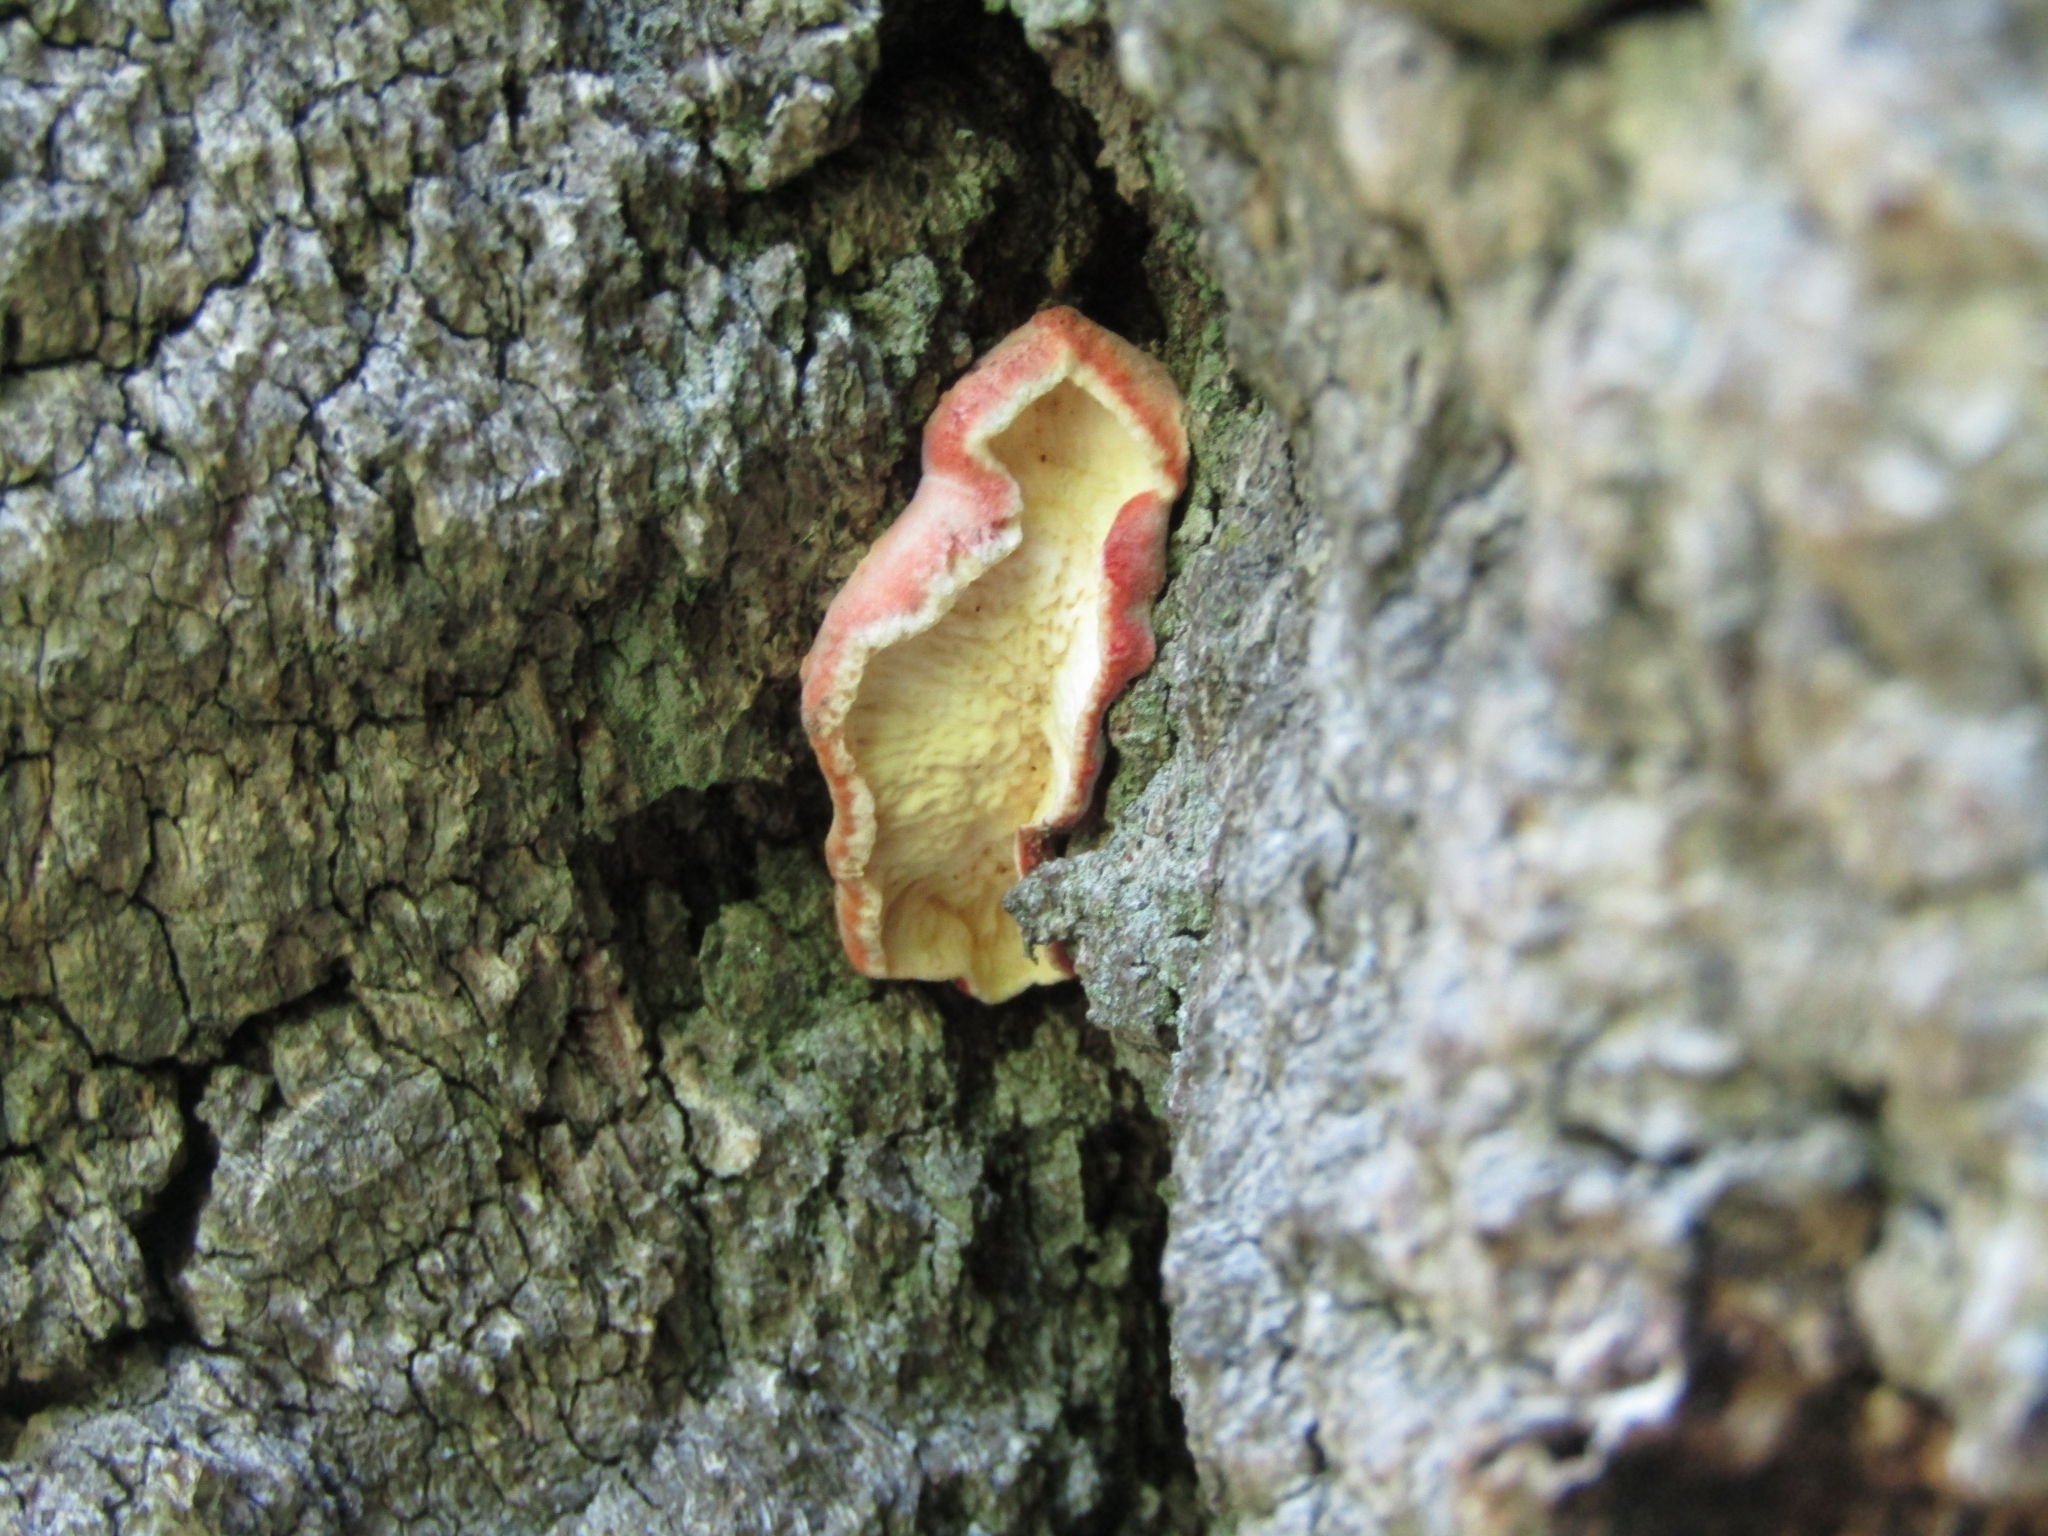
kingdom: Fungi
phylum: Basidiomycota
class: Agaricomycetes
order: Polyporales
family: Irpicaceae
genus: Byssomerulius
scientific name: Byssomerulius incarnatus
